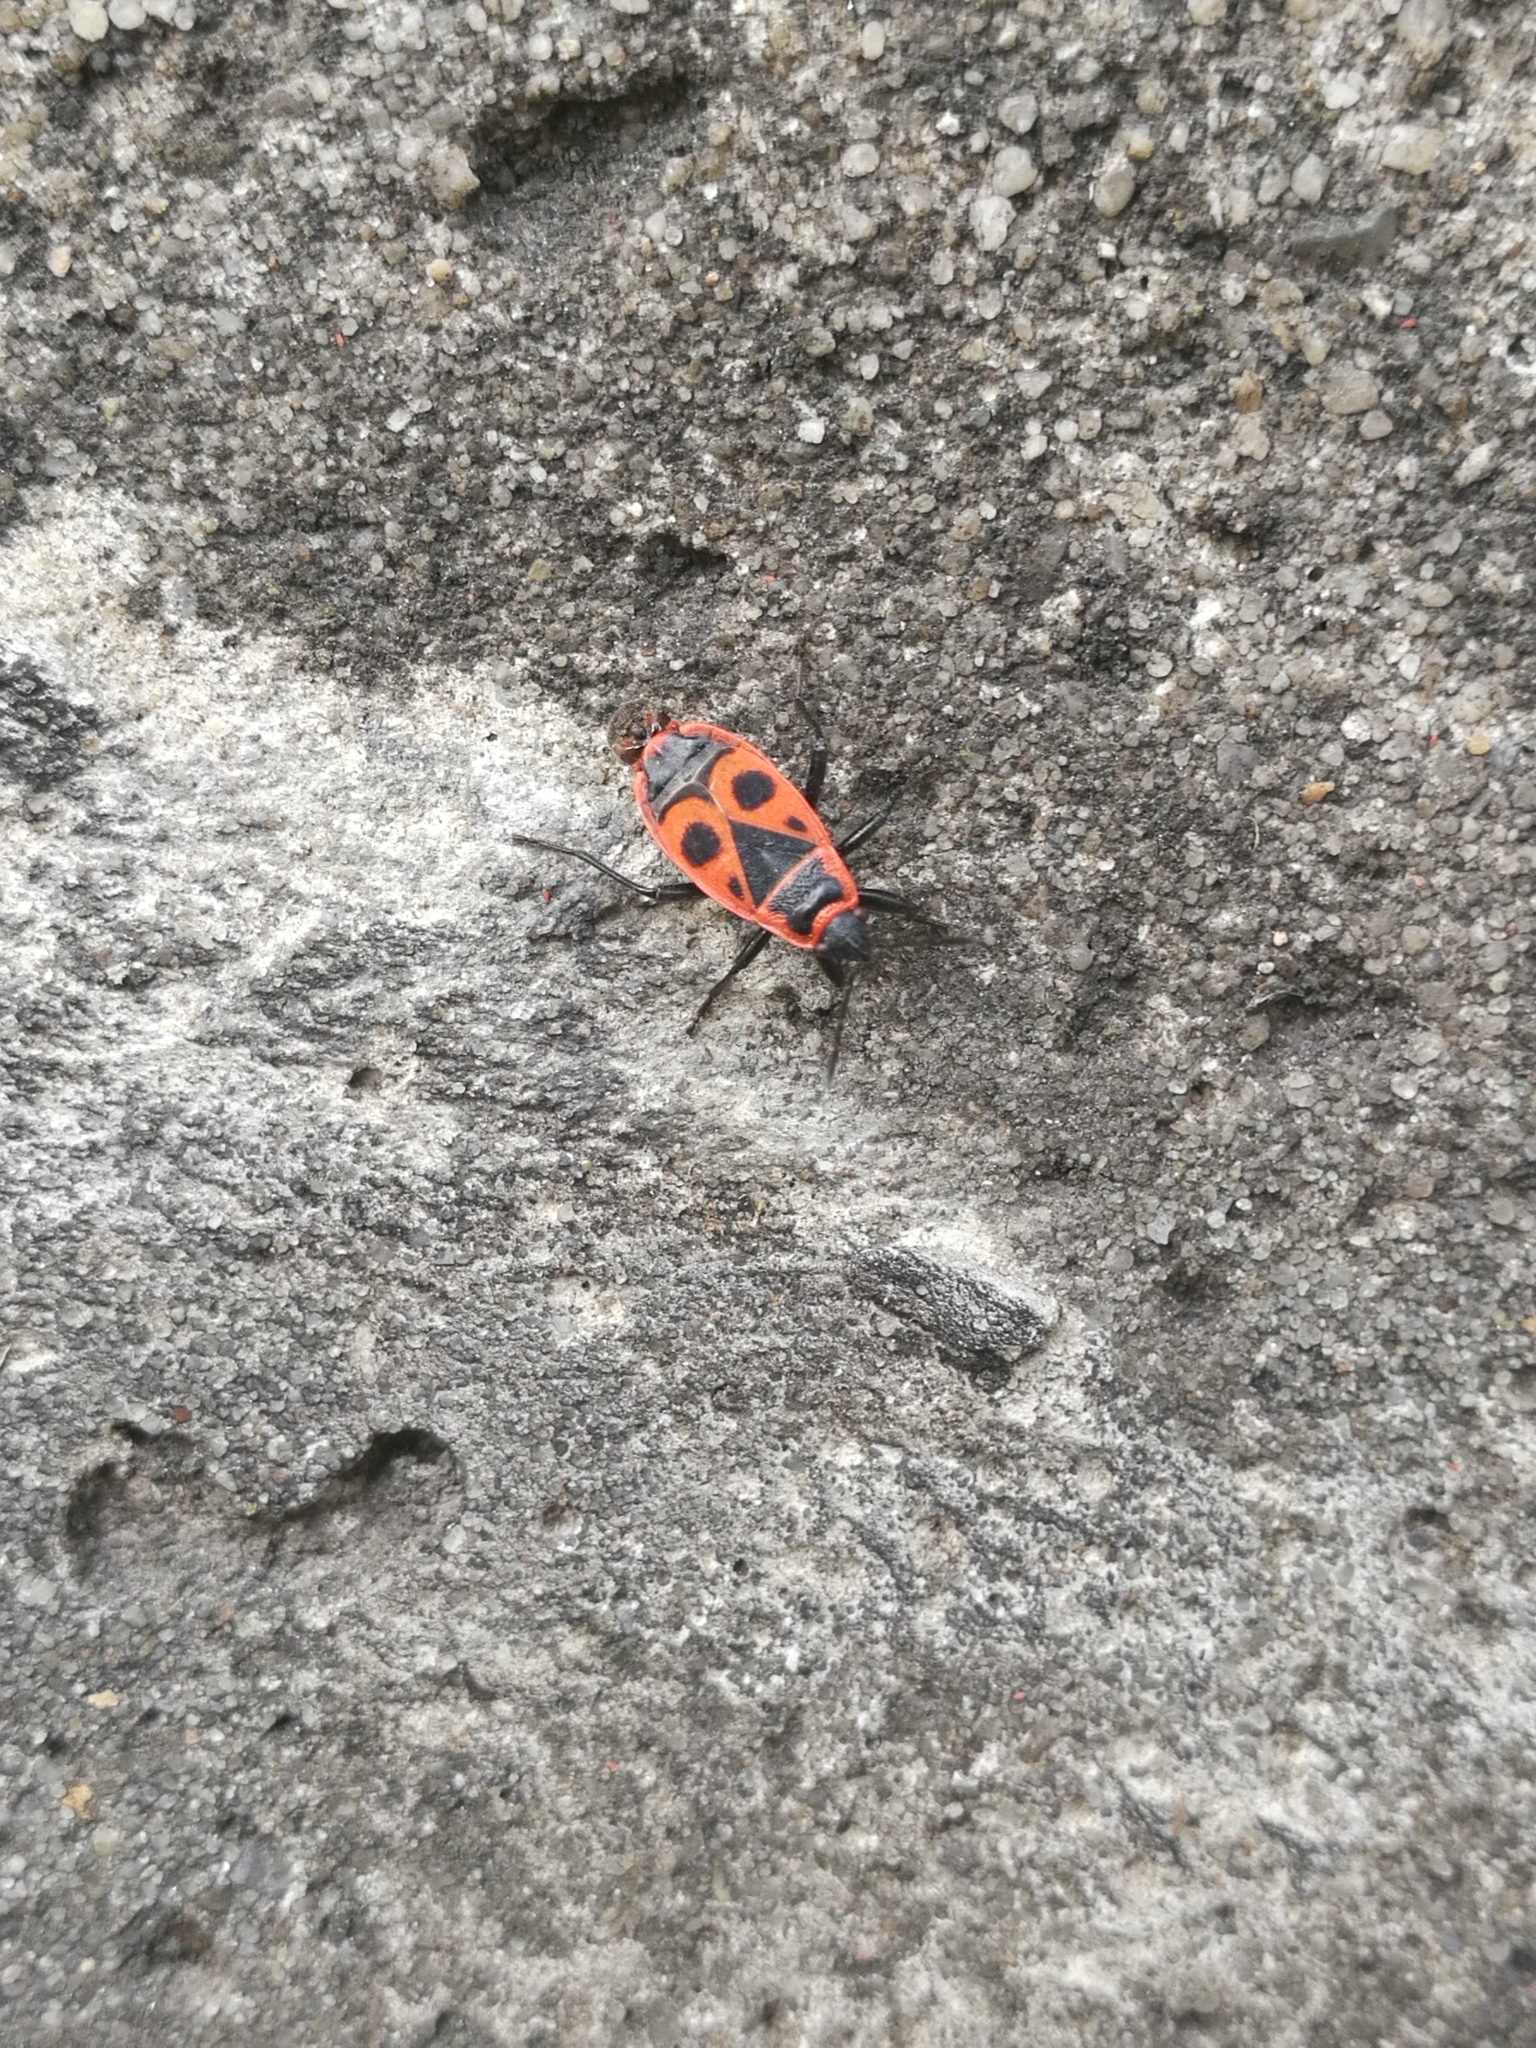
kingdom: Animalia
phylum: Arthropoda
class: Insecta
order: Hemiptera
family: Pyrrhocoridae
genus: Pyrrhocoris
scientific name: Pyrrhocoris apterus
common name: Firebug
